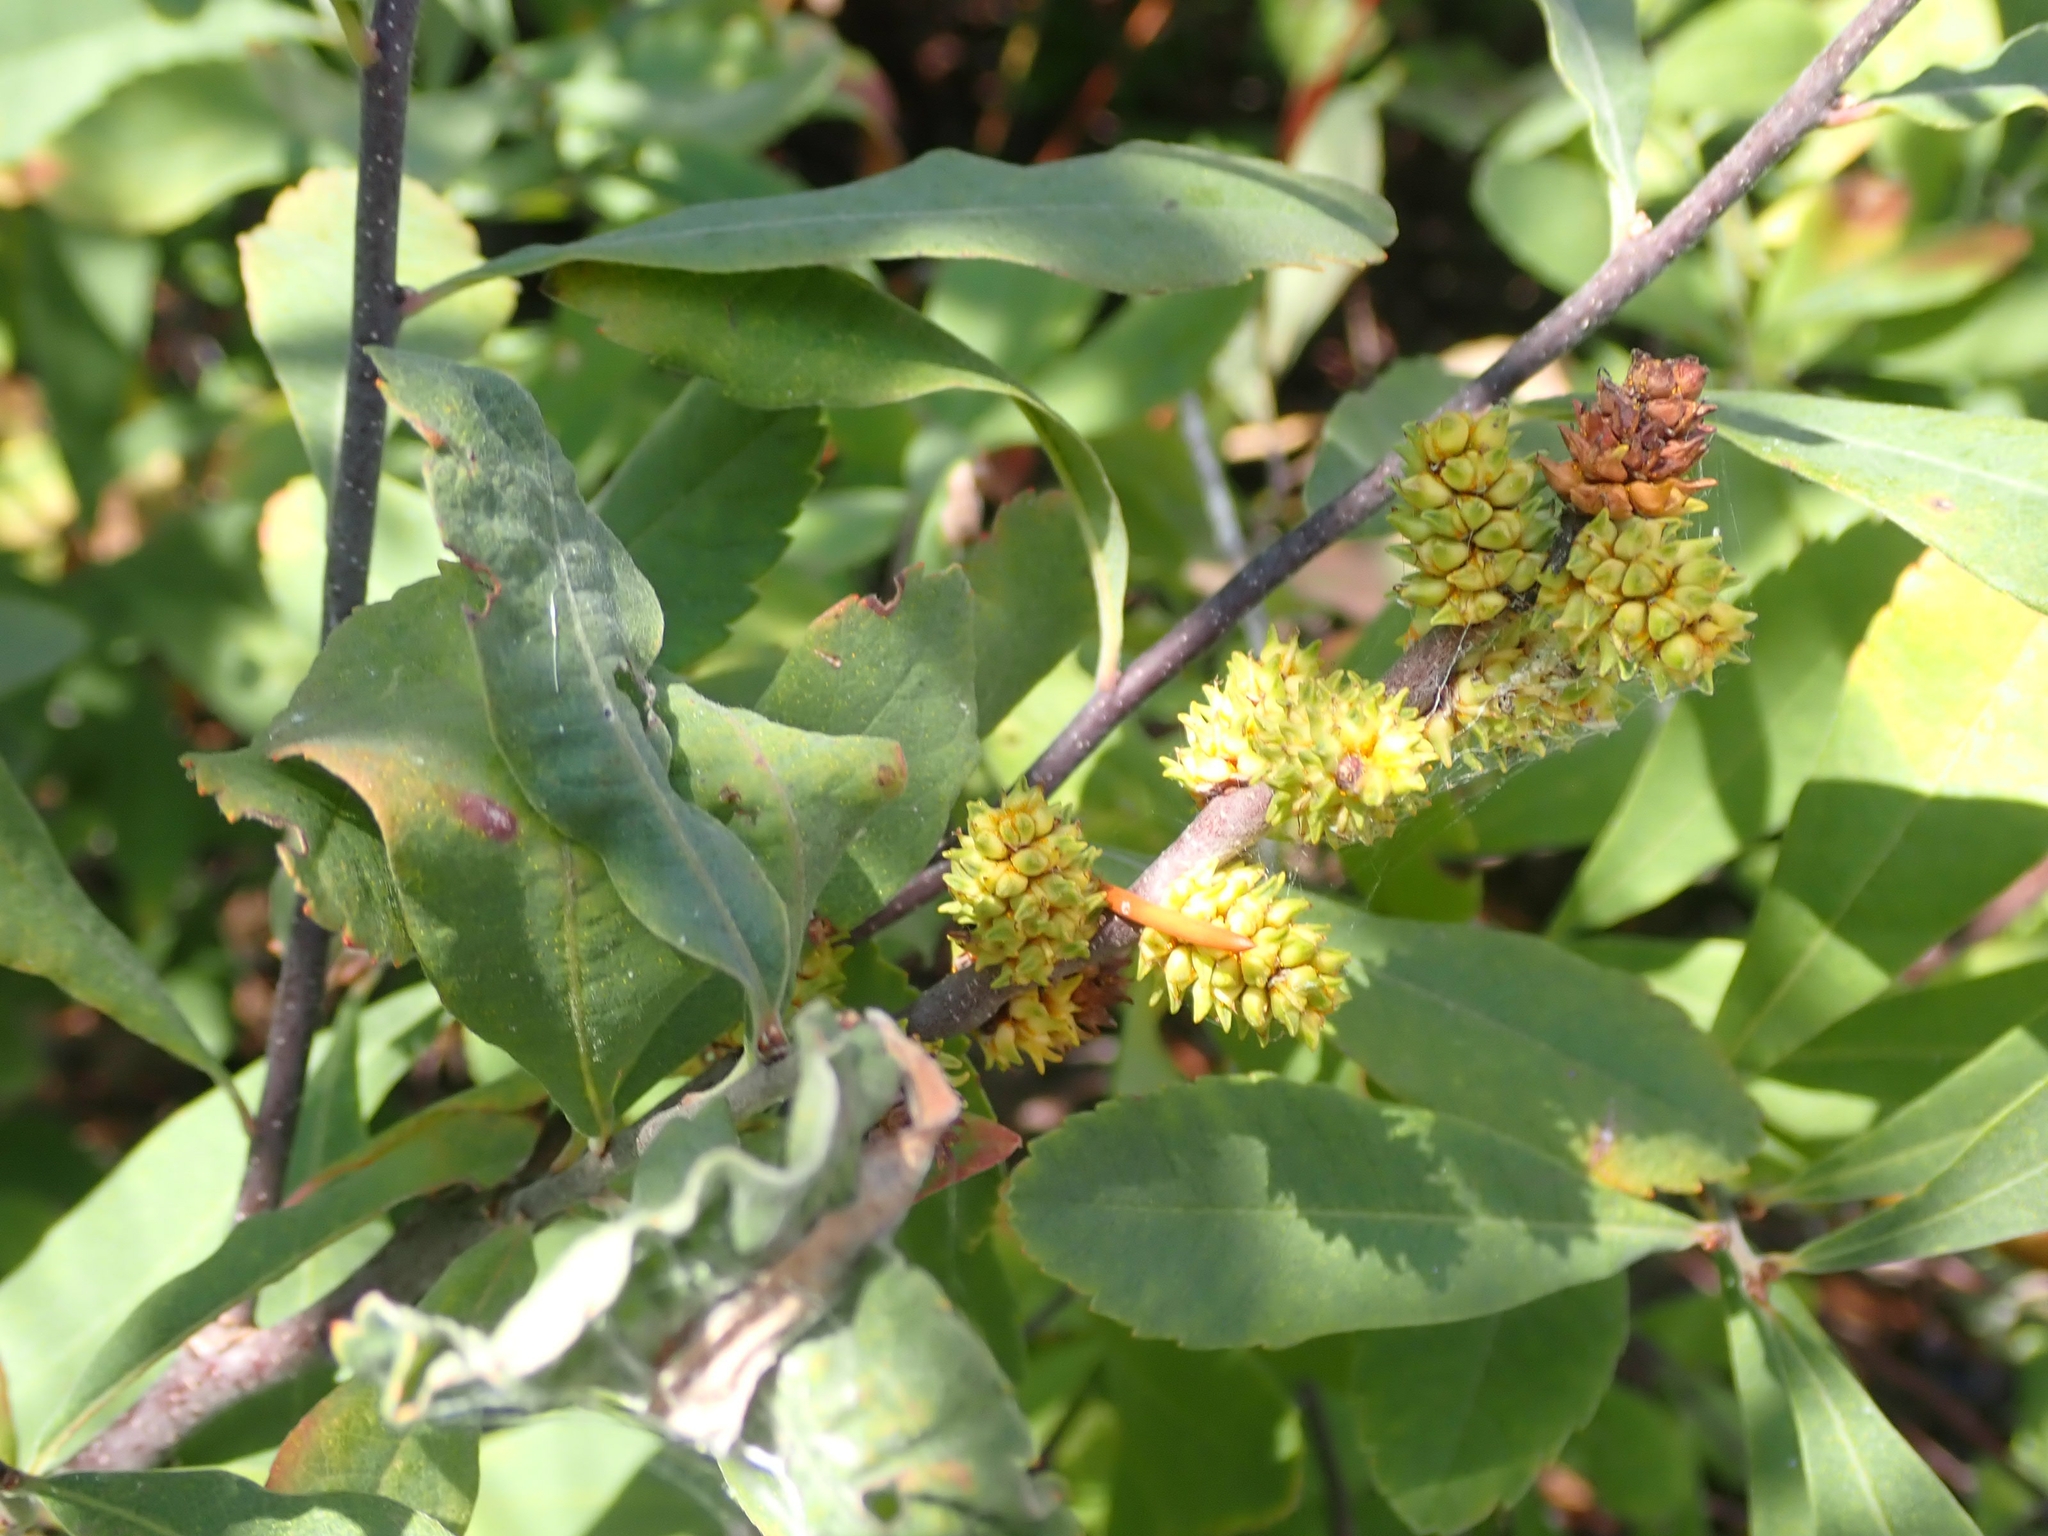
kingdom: Plantae
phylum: Tracheophyta
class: Magnoliopsida
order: Fagales
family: Myricaceae
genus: Myrica
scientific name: Myrica gale
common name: Sweet gale
